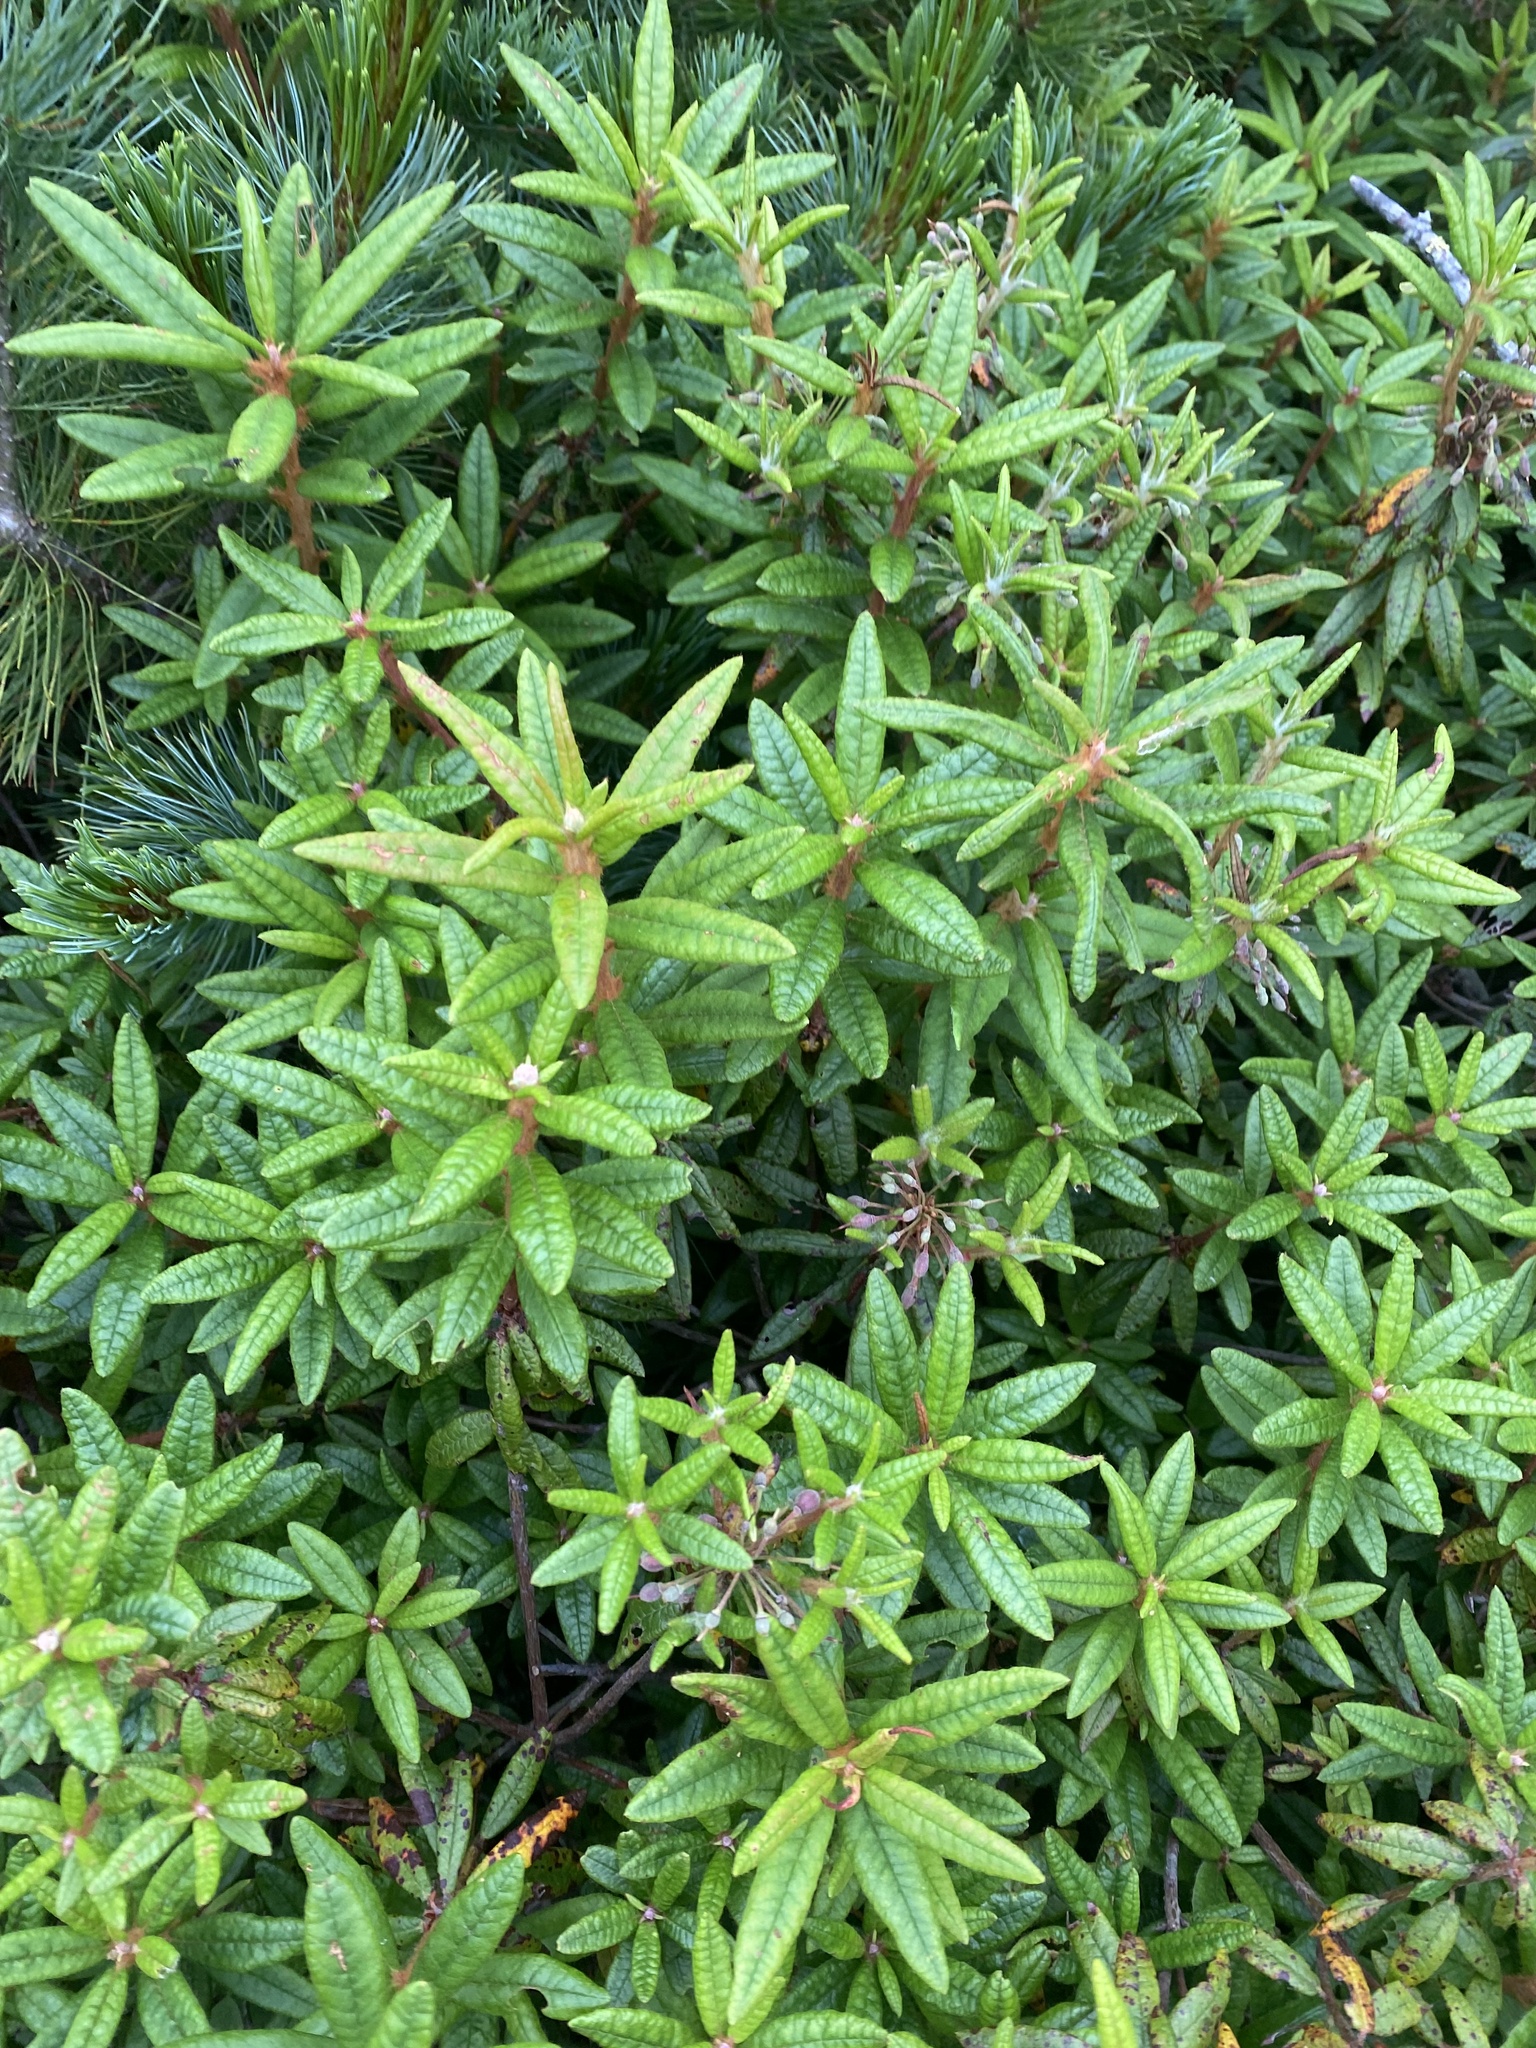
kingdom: Plantae
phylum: Tracheophyta
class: Magnoliopsida
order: Ericales
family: Ericaceae
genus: Rhododendron
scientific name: Rhododendron tomentosum
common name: Marsh labrador tea
